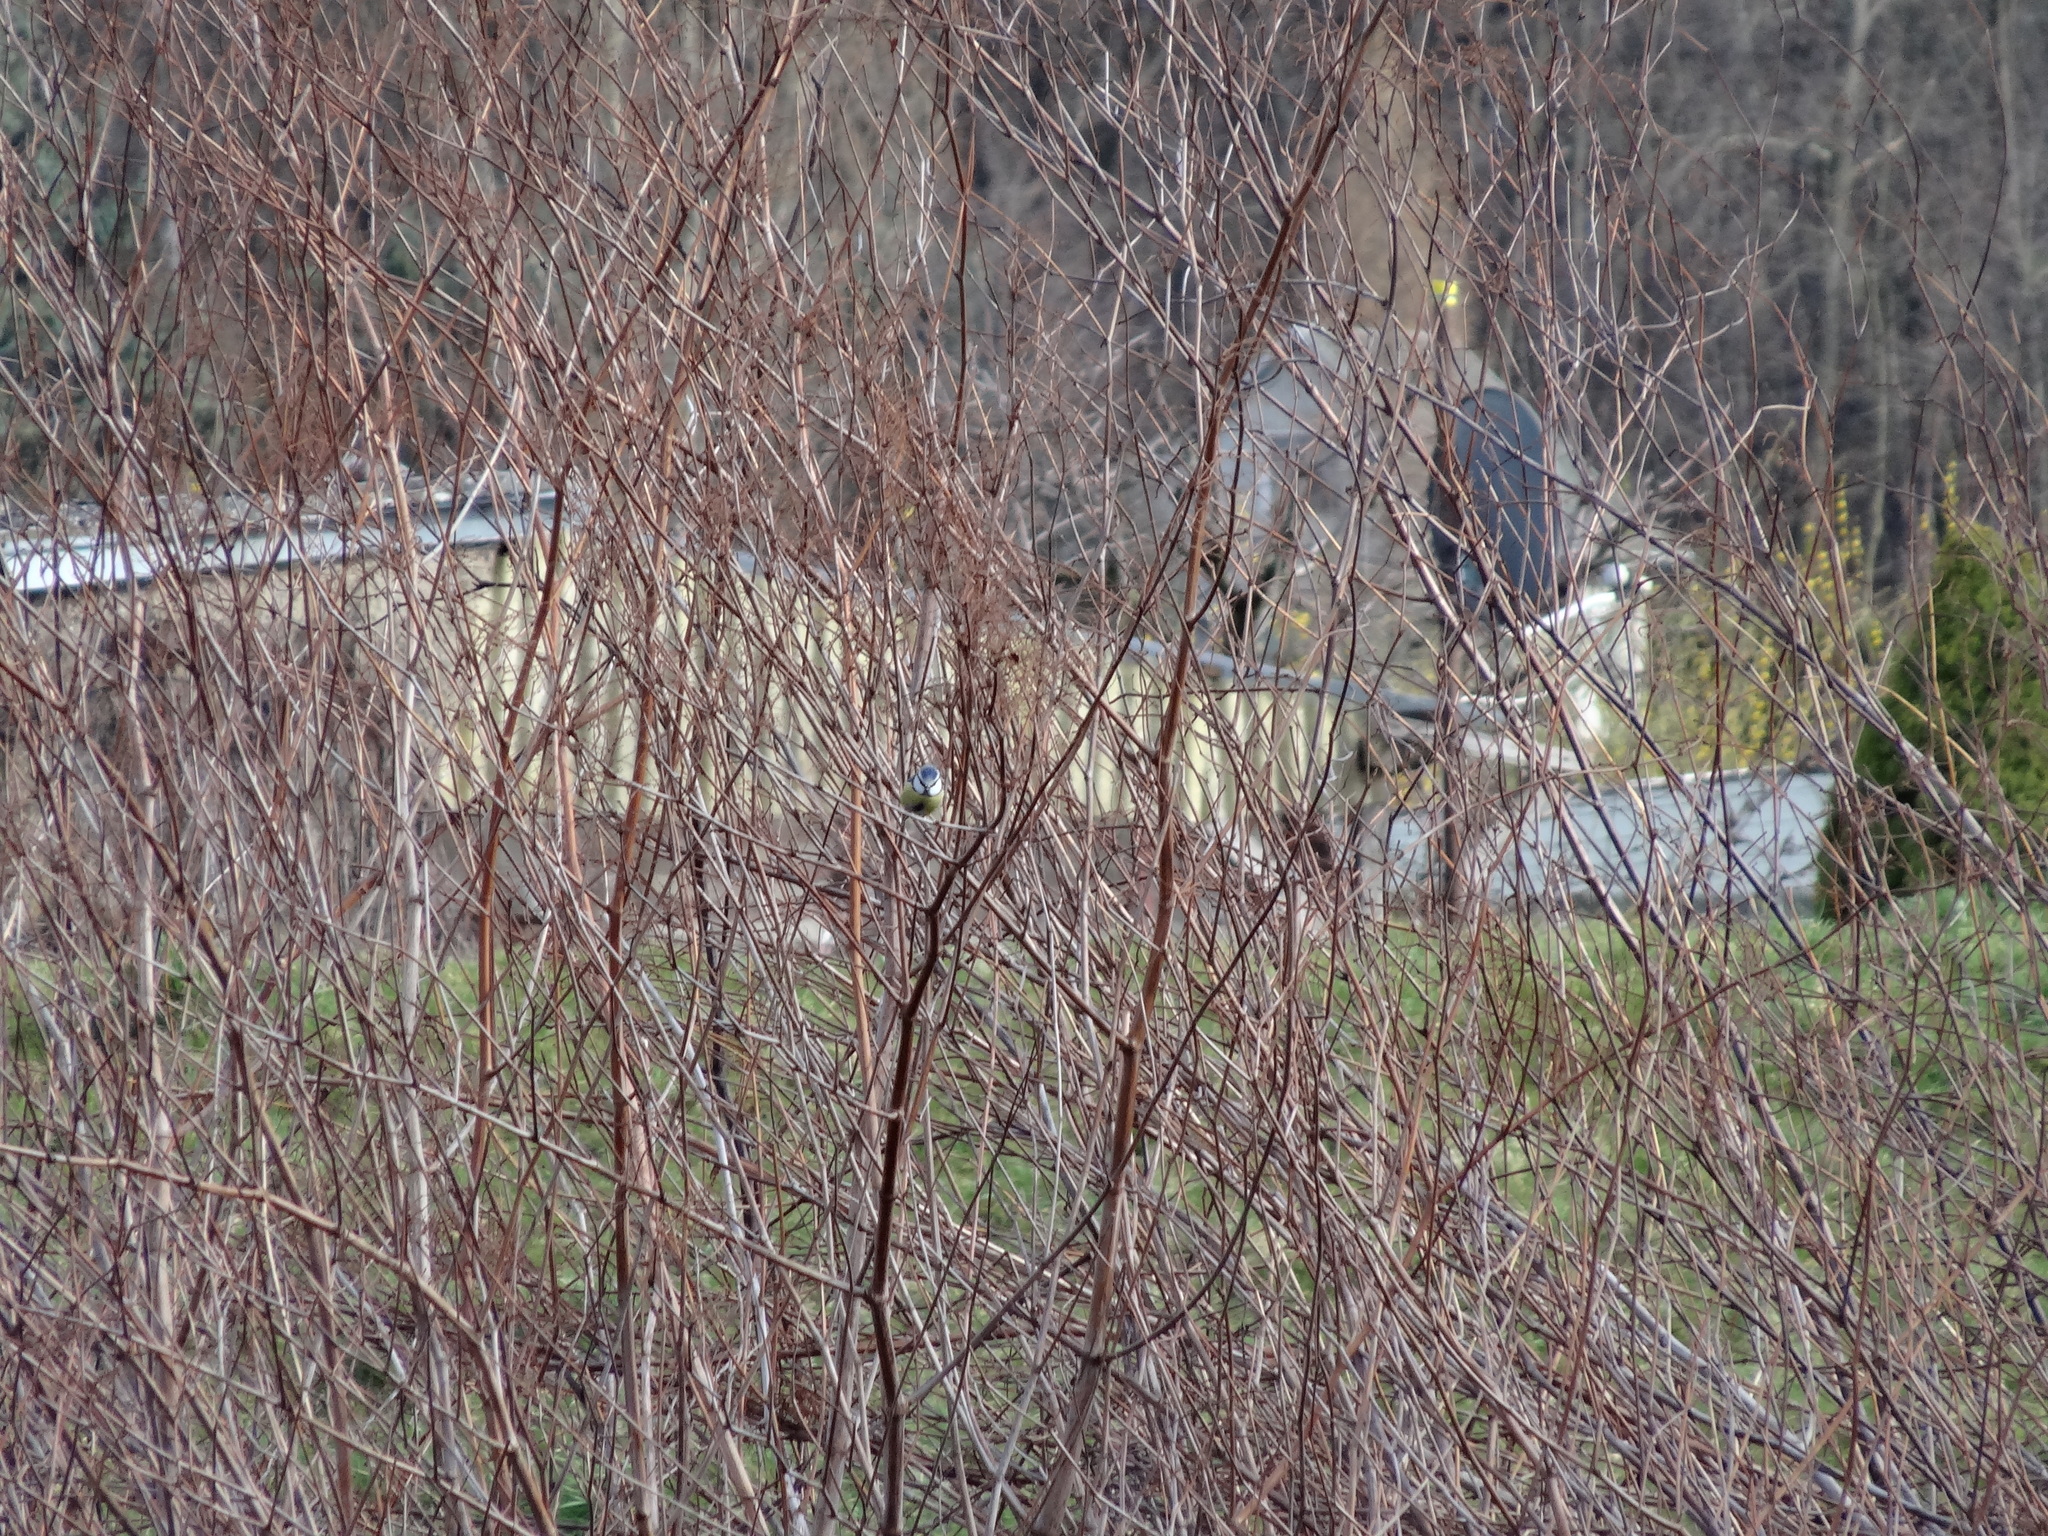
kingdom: Animalia
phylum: Chordata
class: Aves
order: Passeriformes
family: Paridae
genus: Cyanistes
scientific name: Cyanistes caeruleus
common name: Eurasian blue tit
